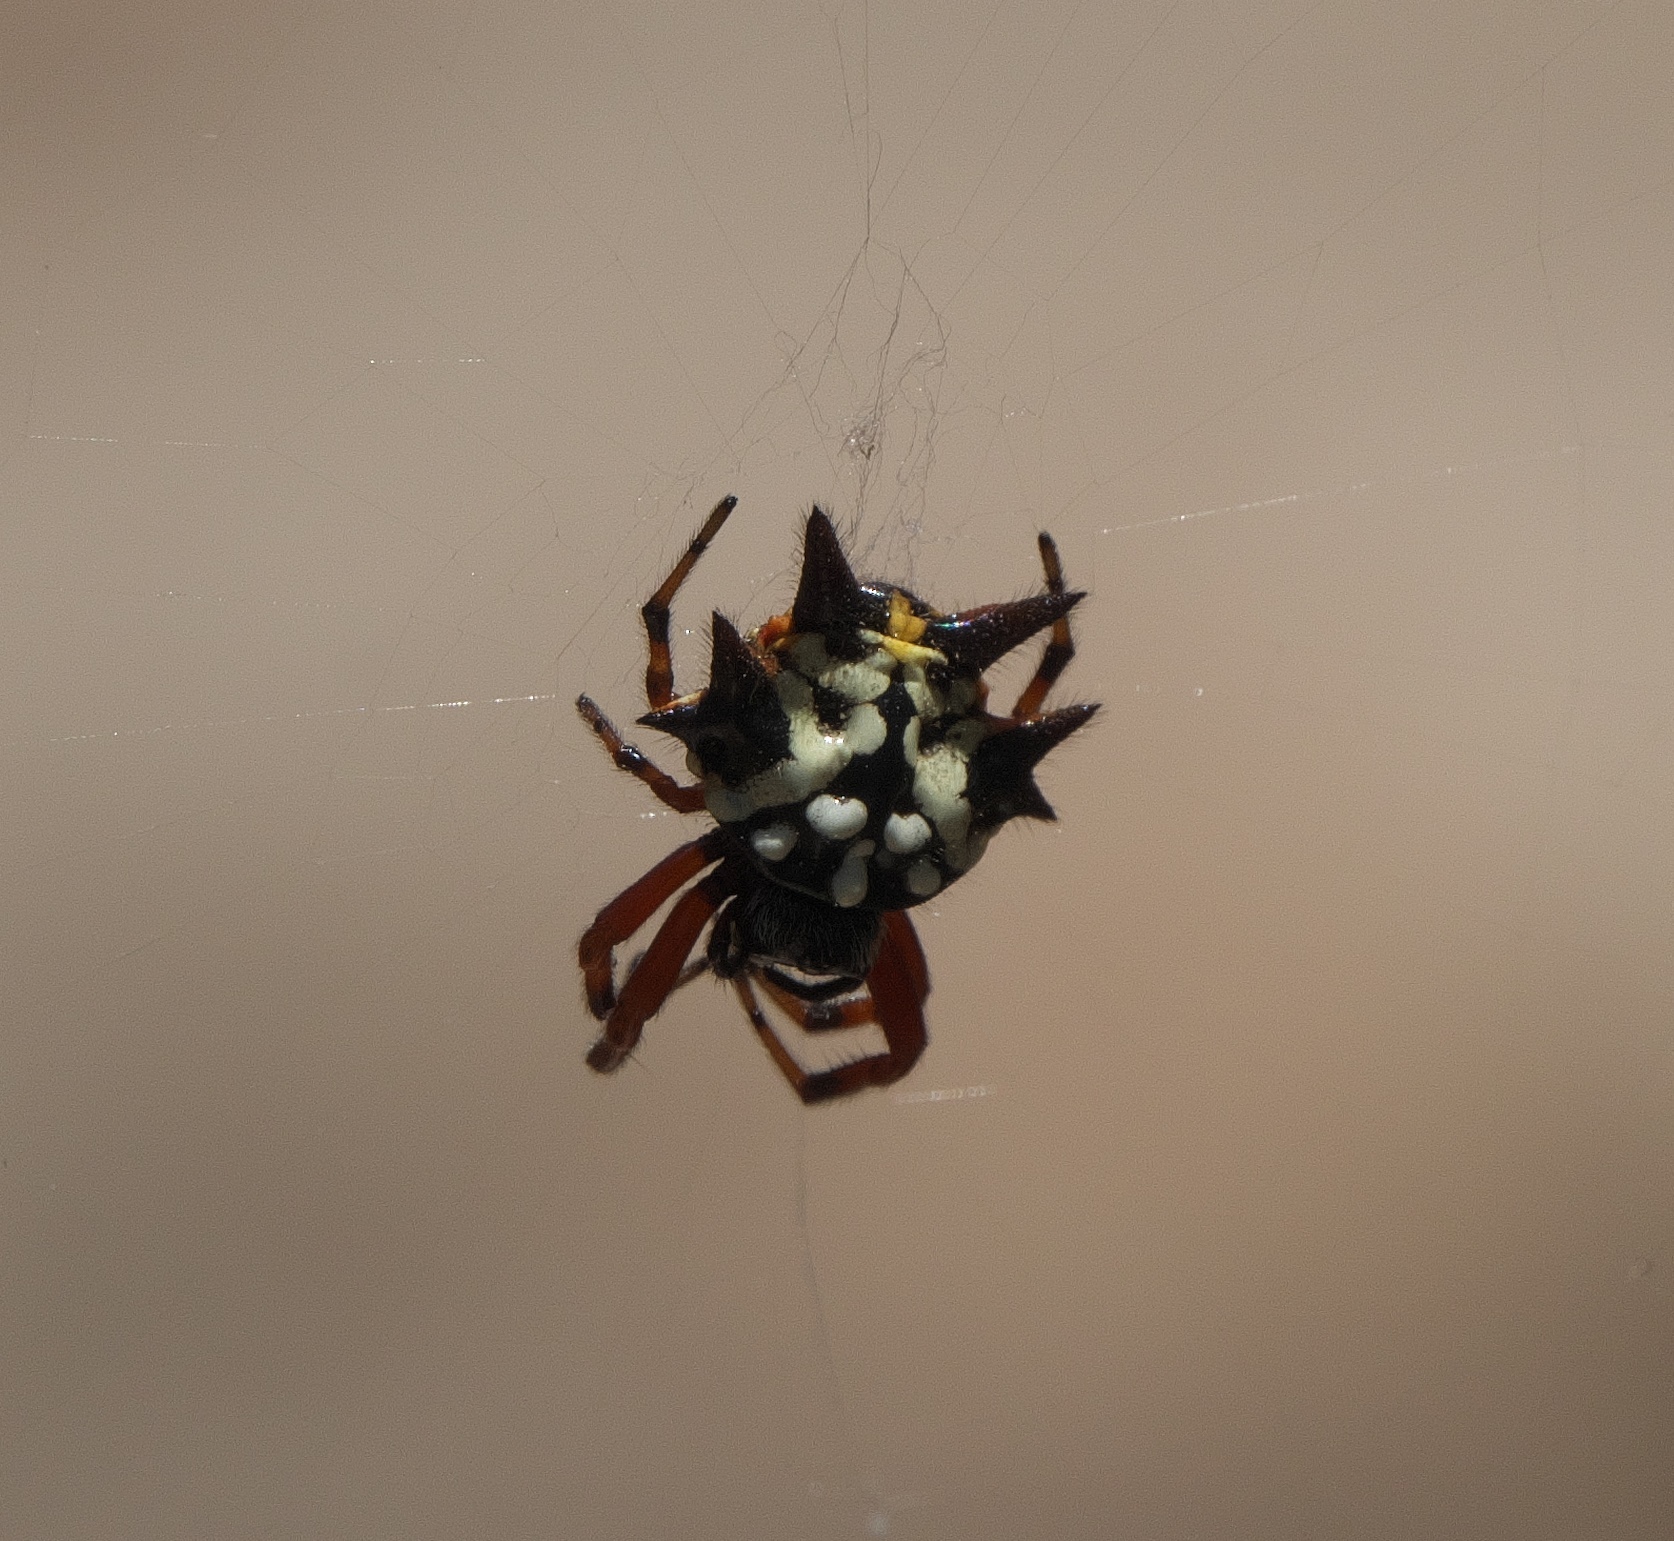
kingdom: Animalia
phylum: Arthropoda
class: Arachnida
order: Araneae
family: Araneidae
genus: Austracantha
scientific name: Austracantha minax
